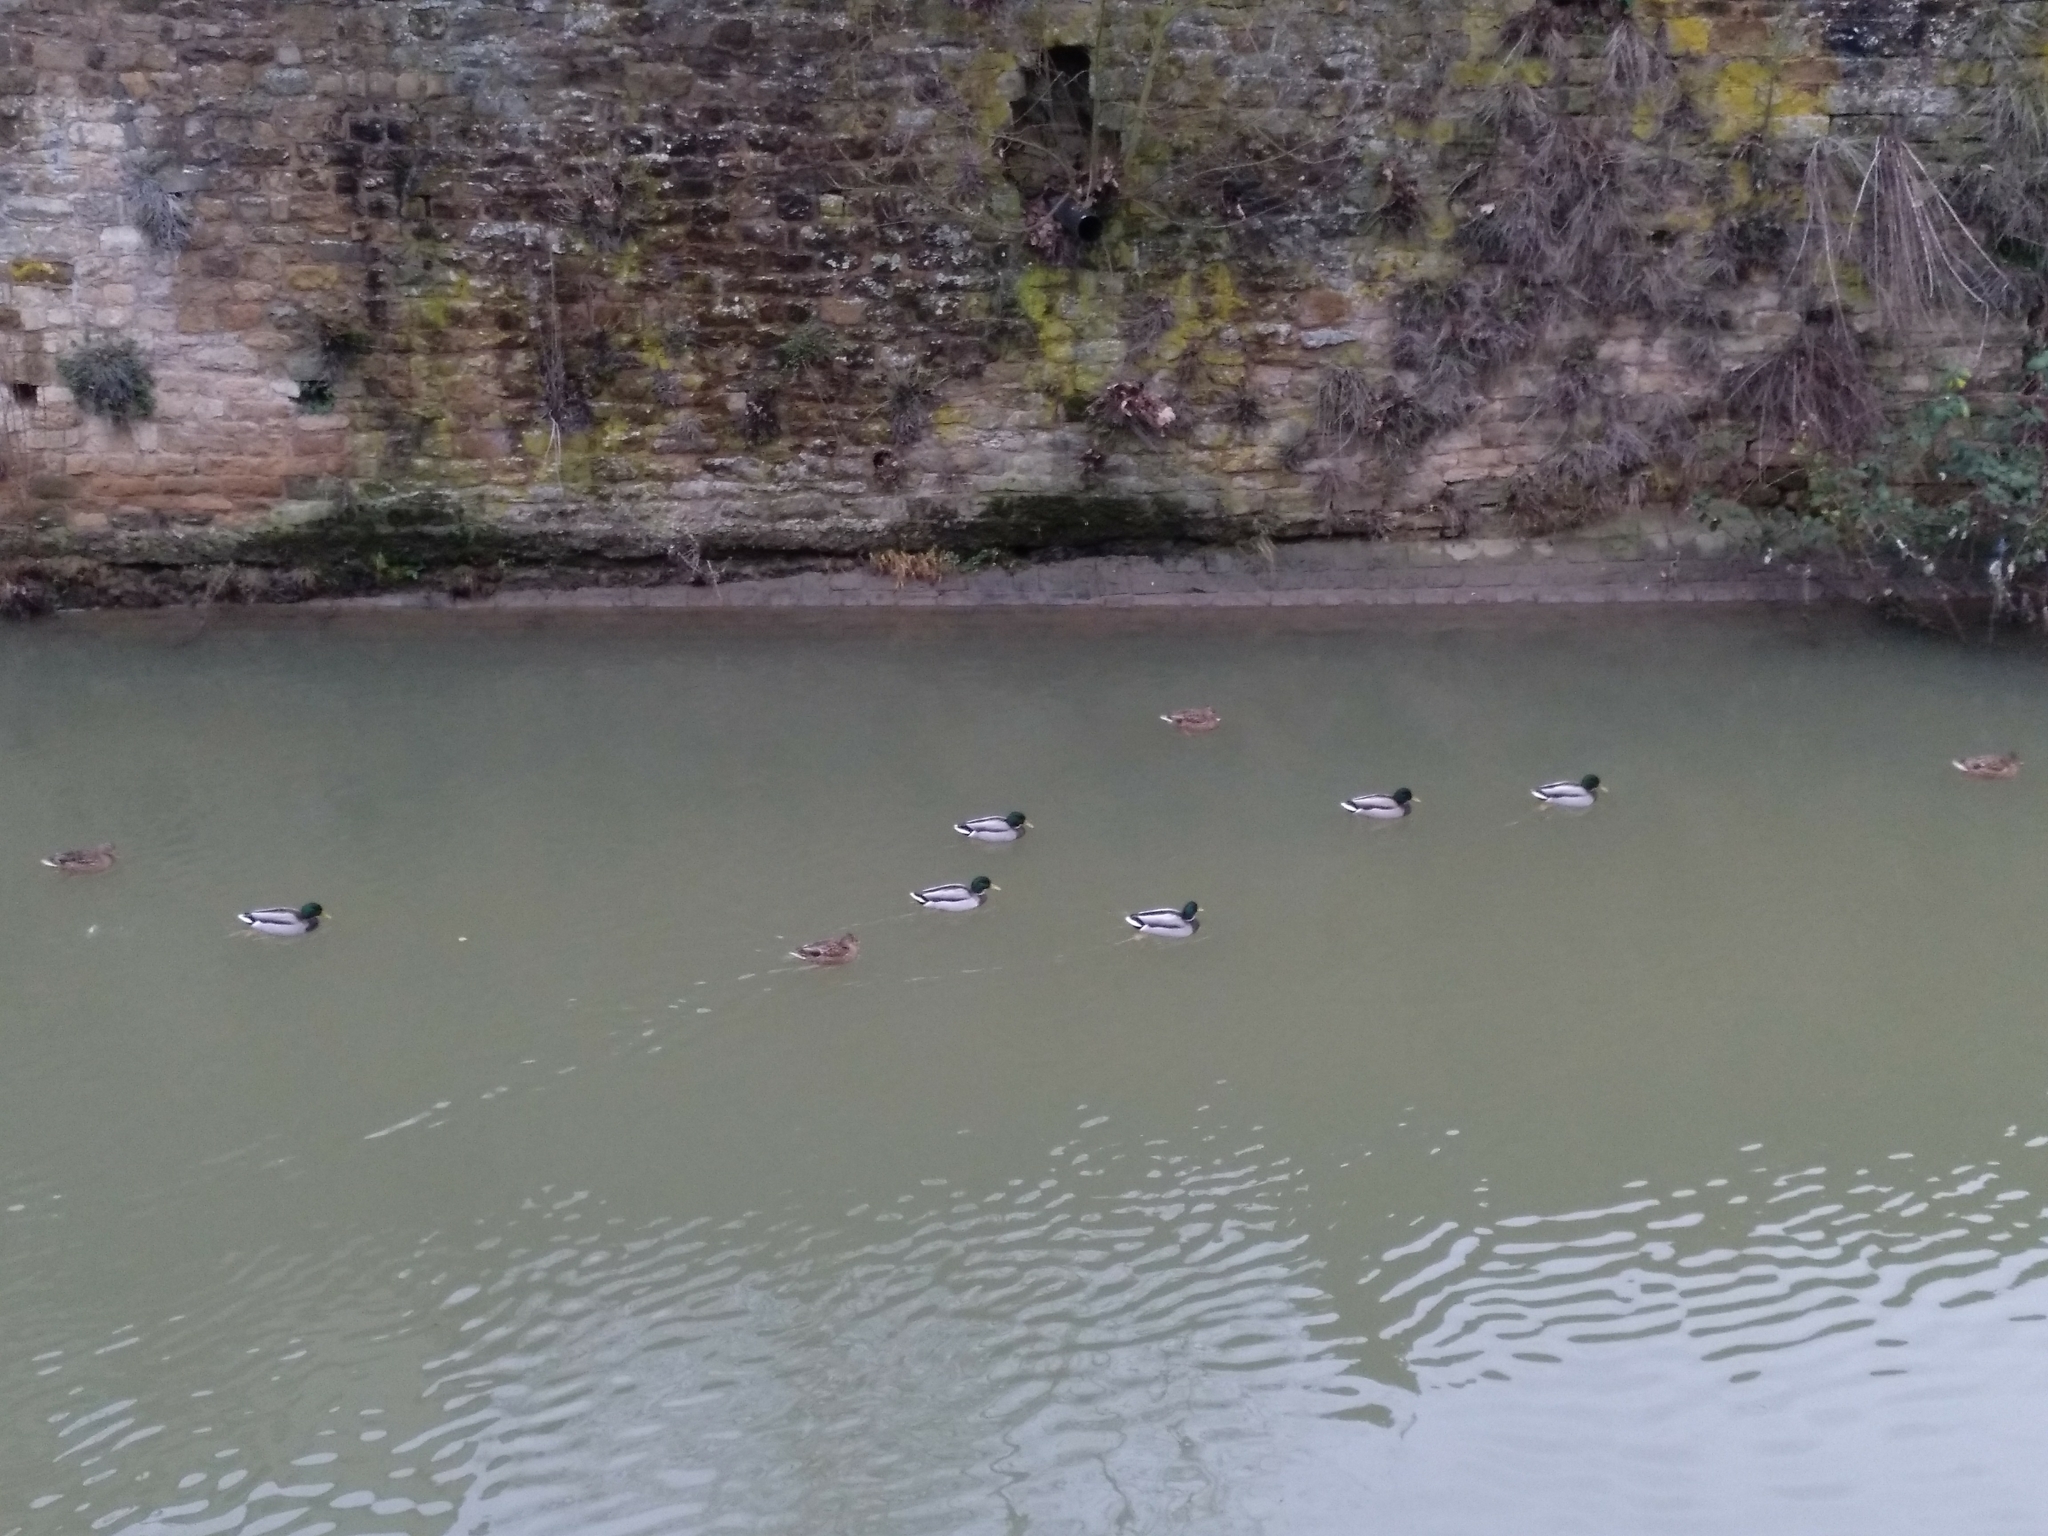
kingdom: Animalia
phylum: Chordata
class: Aves
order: Anseriformes
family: Anatidae
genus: Anas
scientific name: Anas platyrhynchos
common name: Mallard
